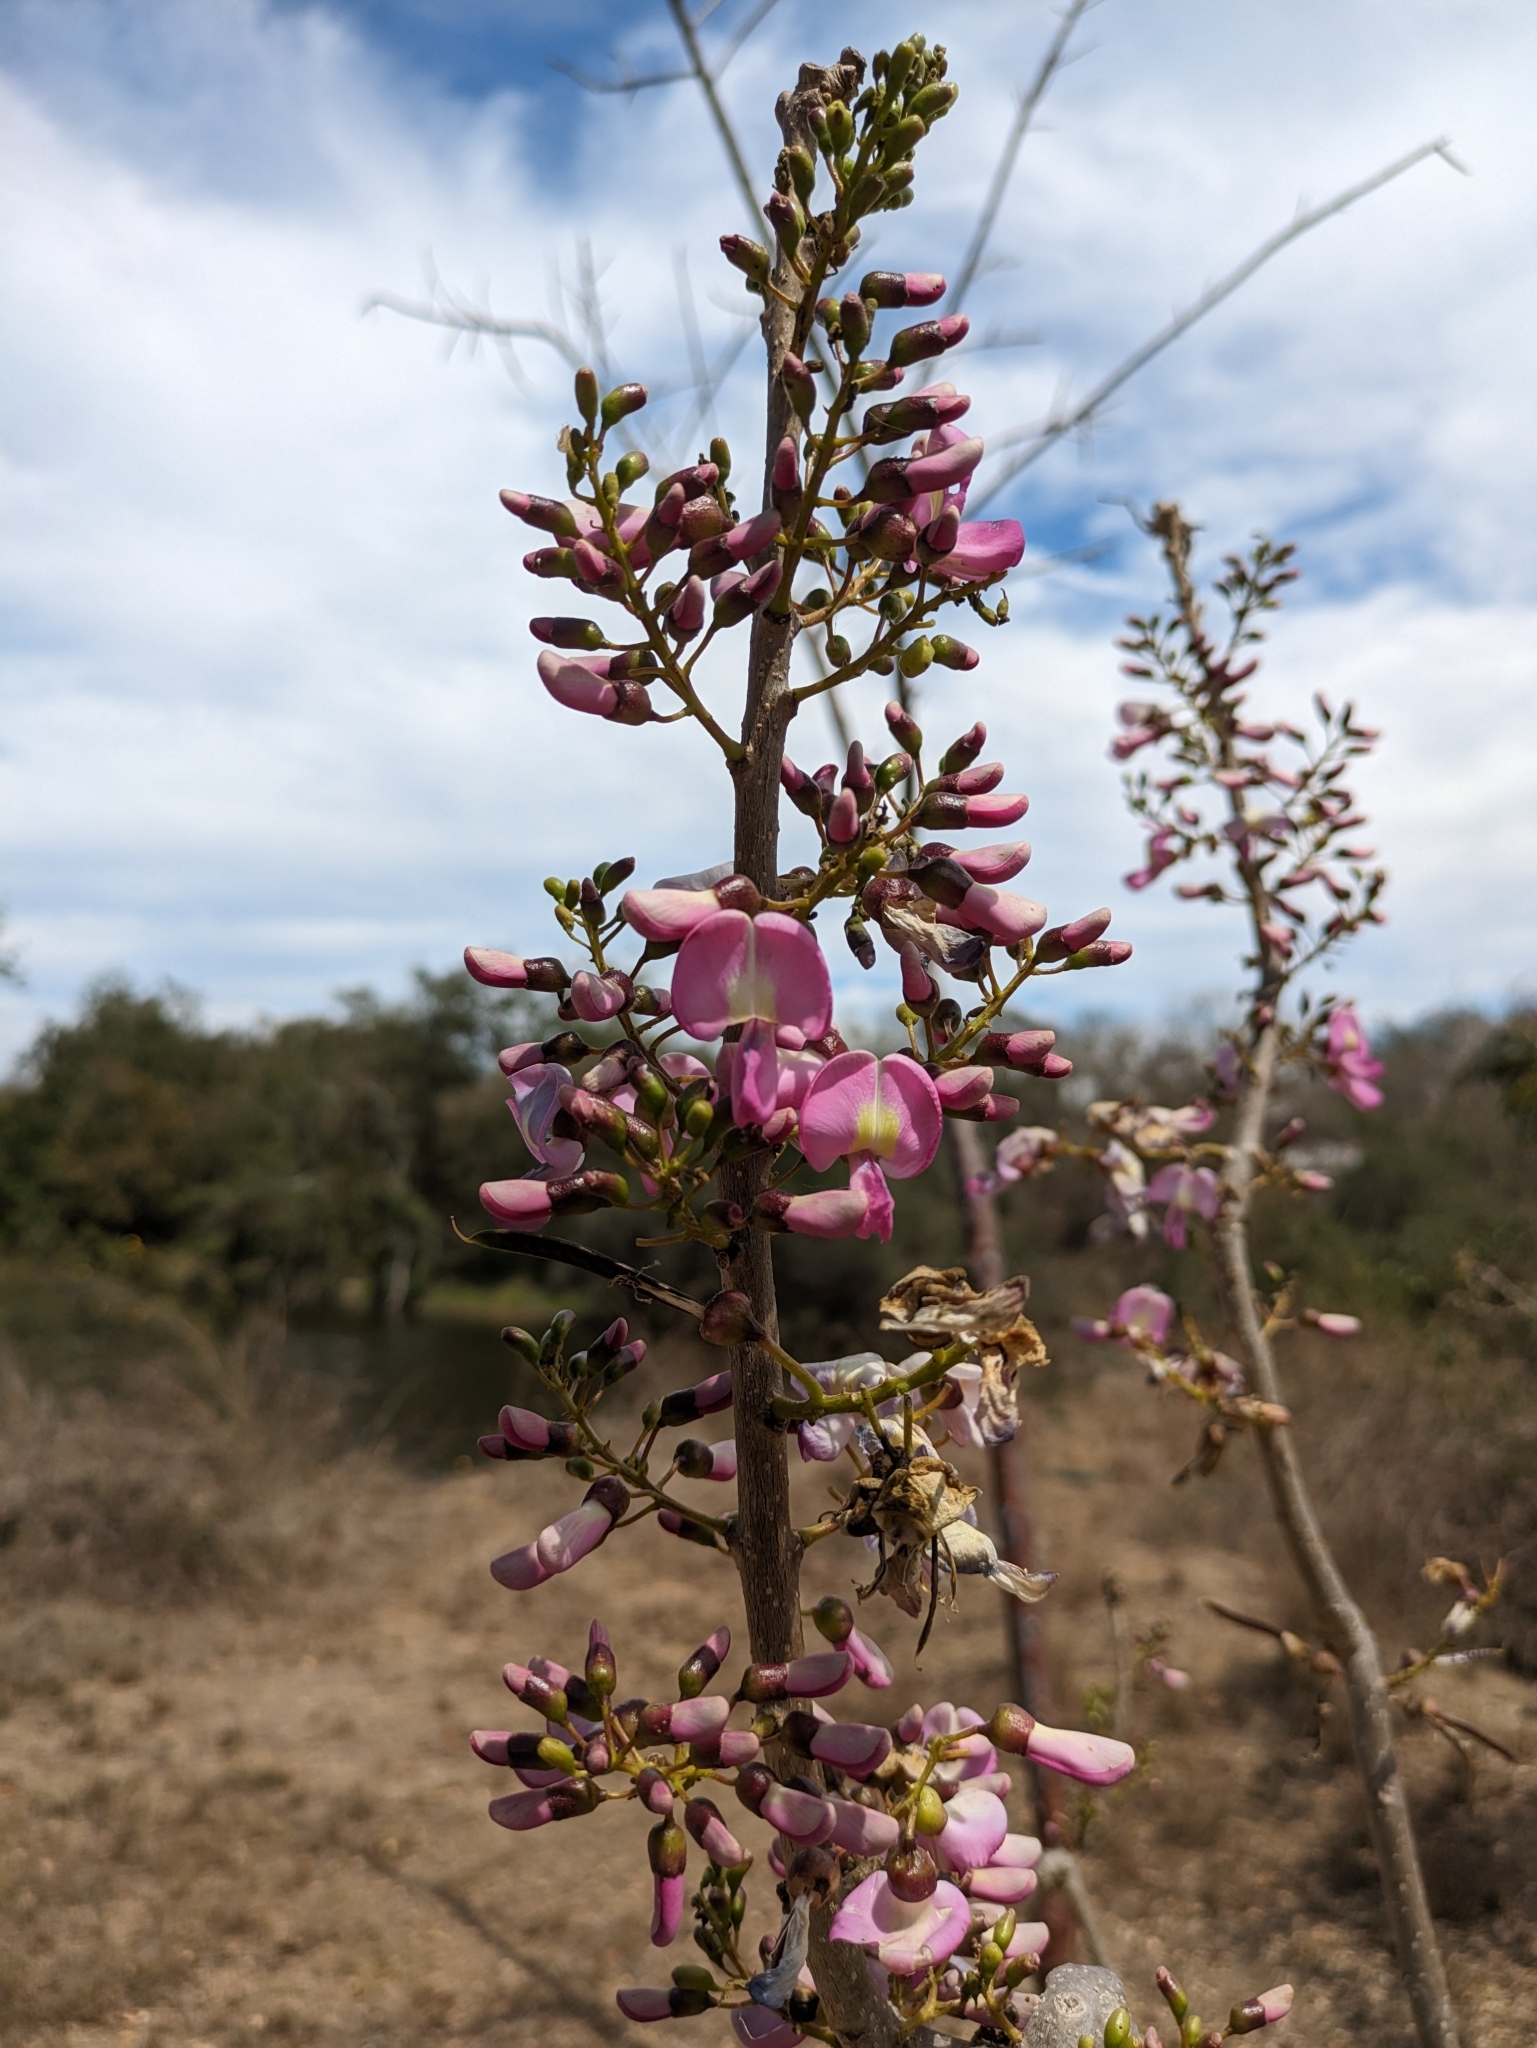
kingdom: Plantae
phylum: Tracheophyta
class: Magnoliopsida
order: Fabales
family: Fabaceae
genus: Gliricidia
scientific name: Gliricidia sepium
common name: Quickstick
